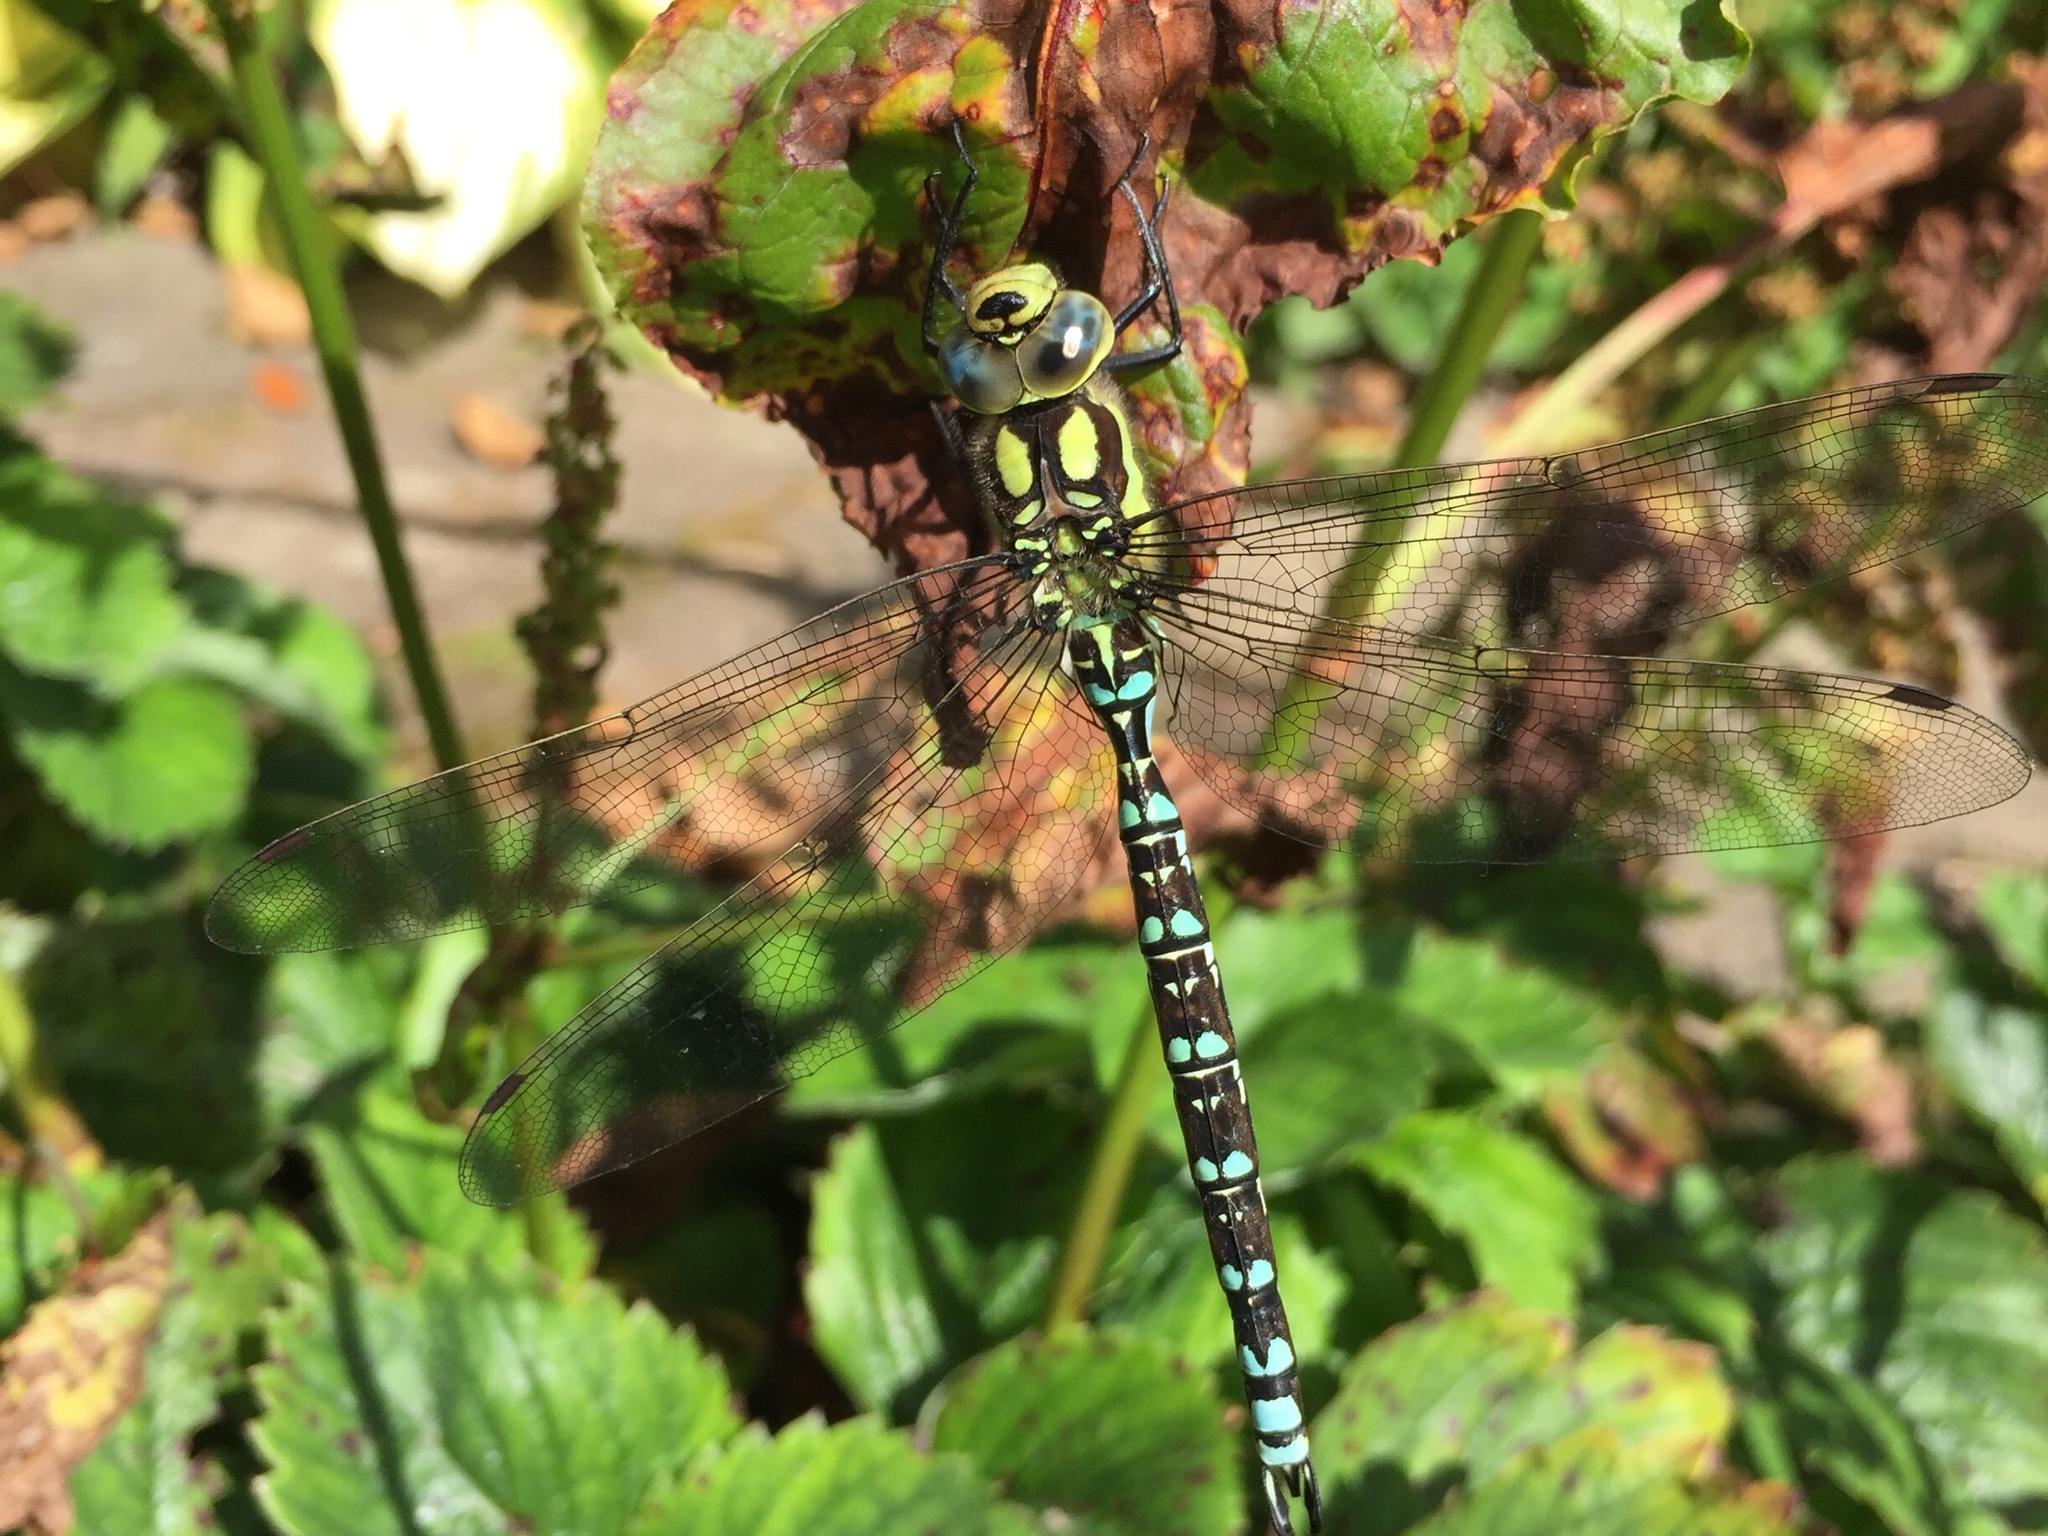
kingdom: Animalia
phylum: Arthropoda
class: Insecta
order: Odonata
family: Aeshnidae
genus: Aeshna
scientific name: Aeshna cyanea
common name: Southern hawker
